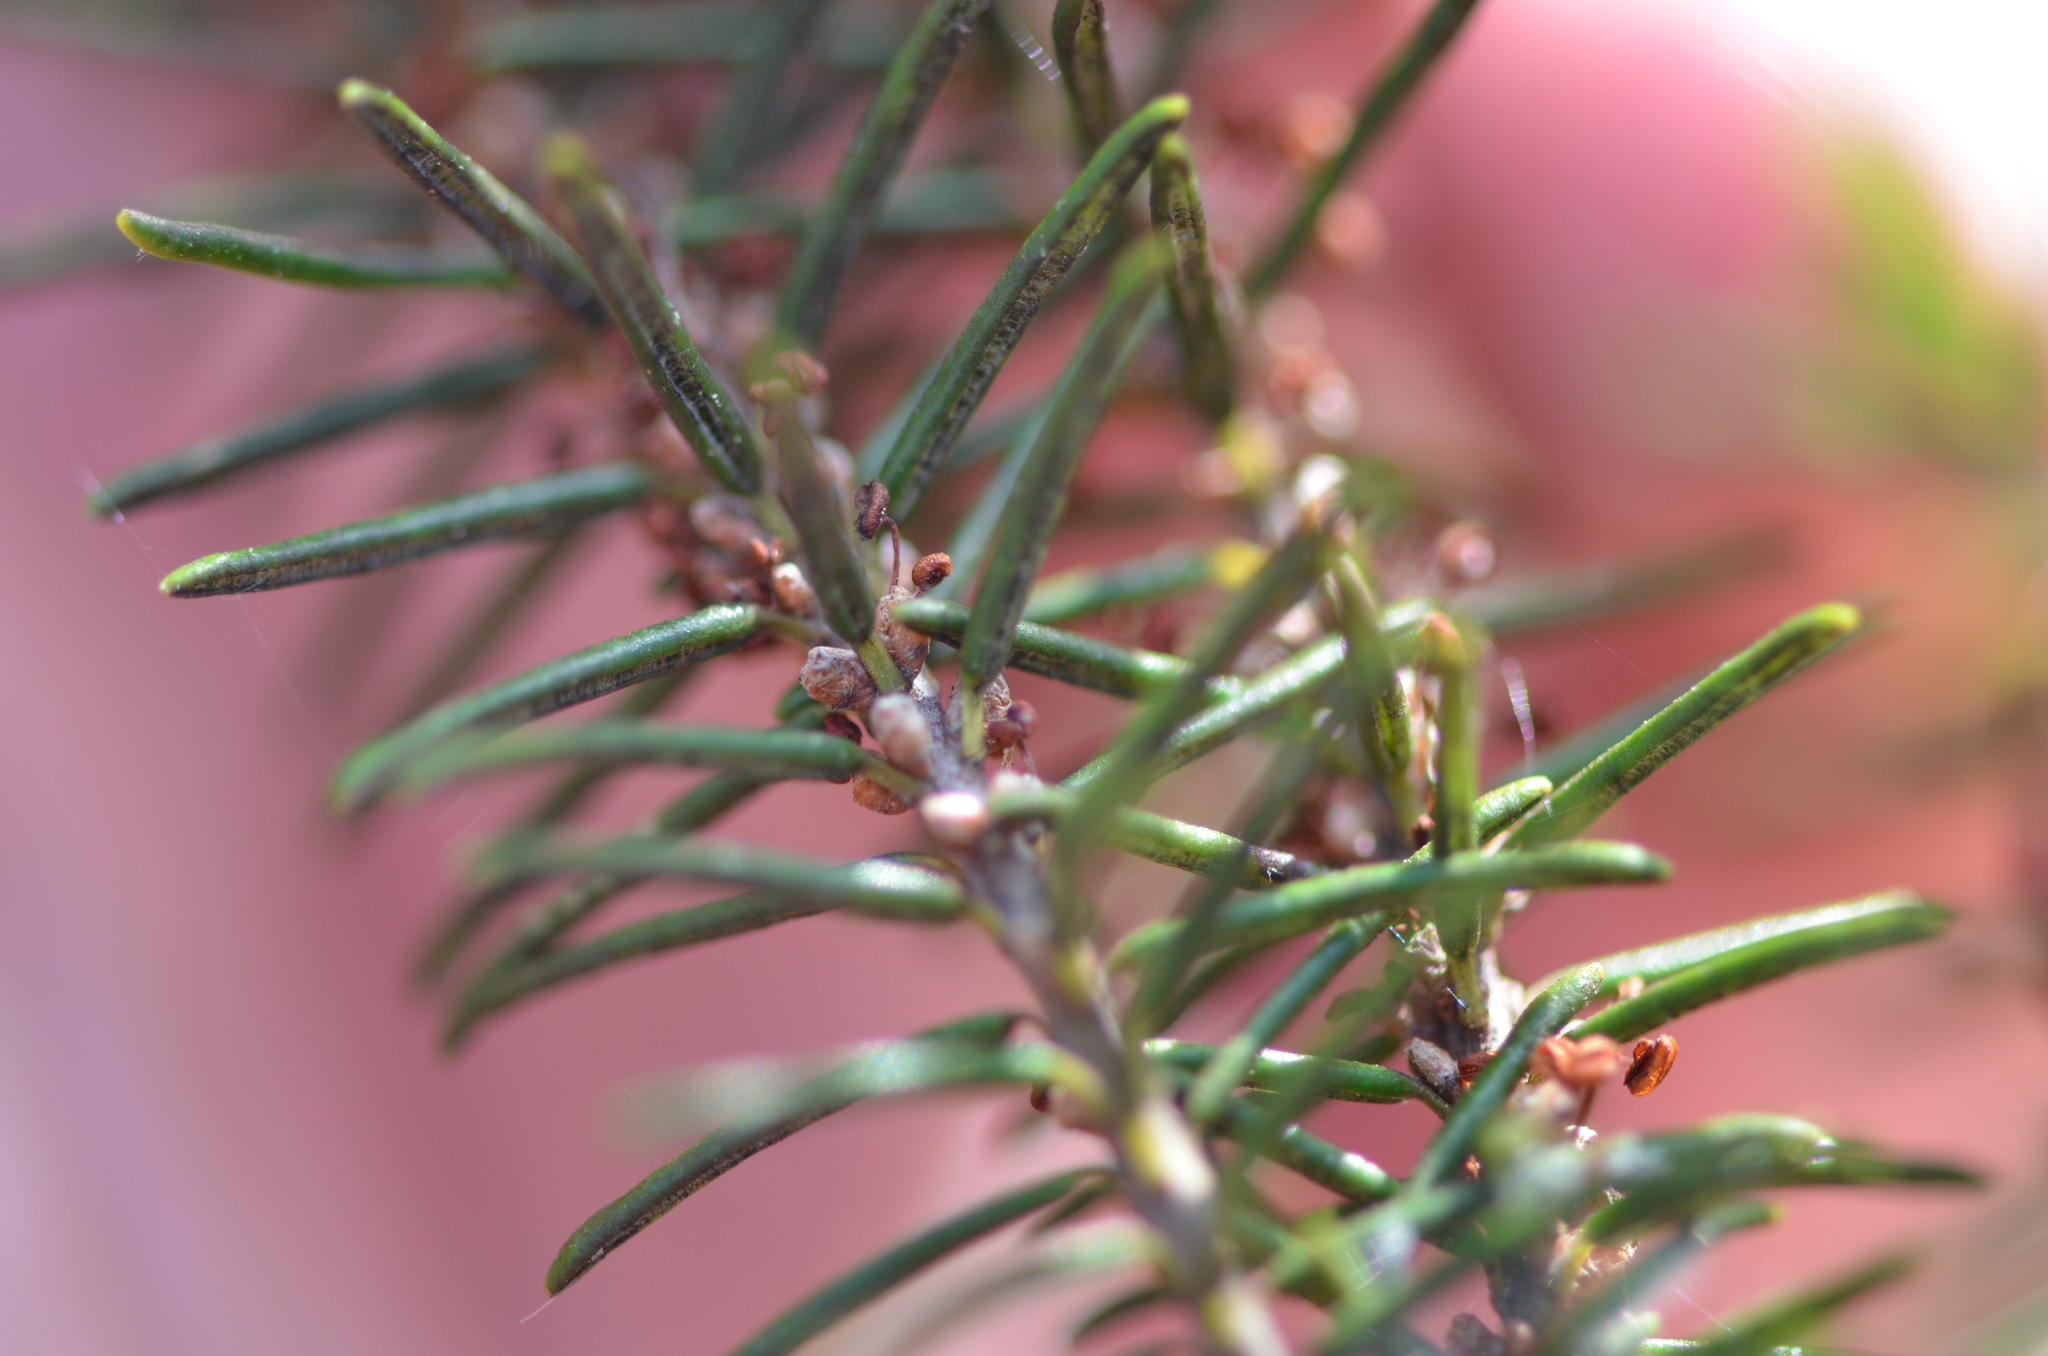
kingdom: Plantae
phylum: Tracheophyta
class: Magnoliopsida
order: Ericales
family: Ericaceae
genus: Ceratiola
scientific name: Ceratiola ericoides
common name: Sandhill-rosemary
